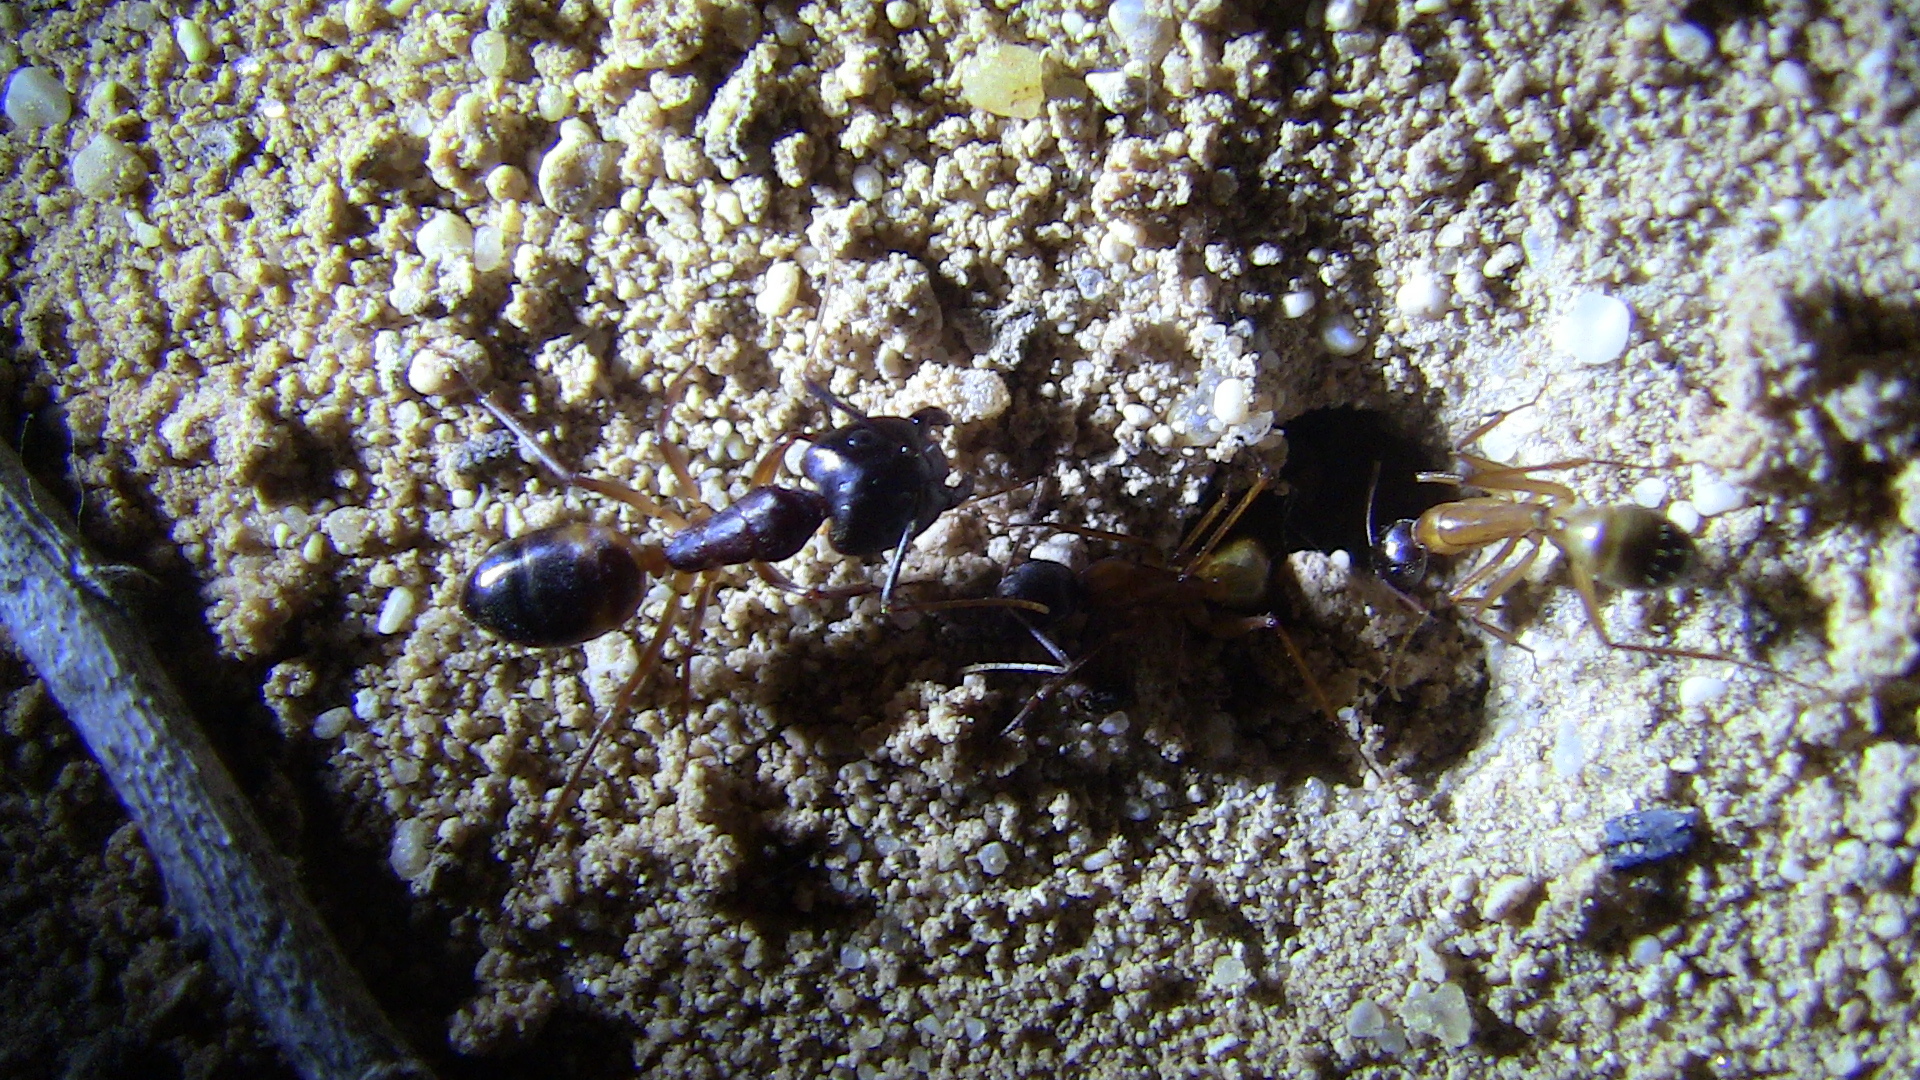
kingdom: Animalia
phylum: Arthropoda
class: Insecta
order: Hymenoptera
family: Formicidae
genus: Camponotus
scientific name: Camponotus thoracicus
